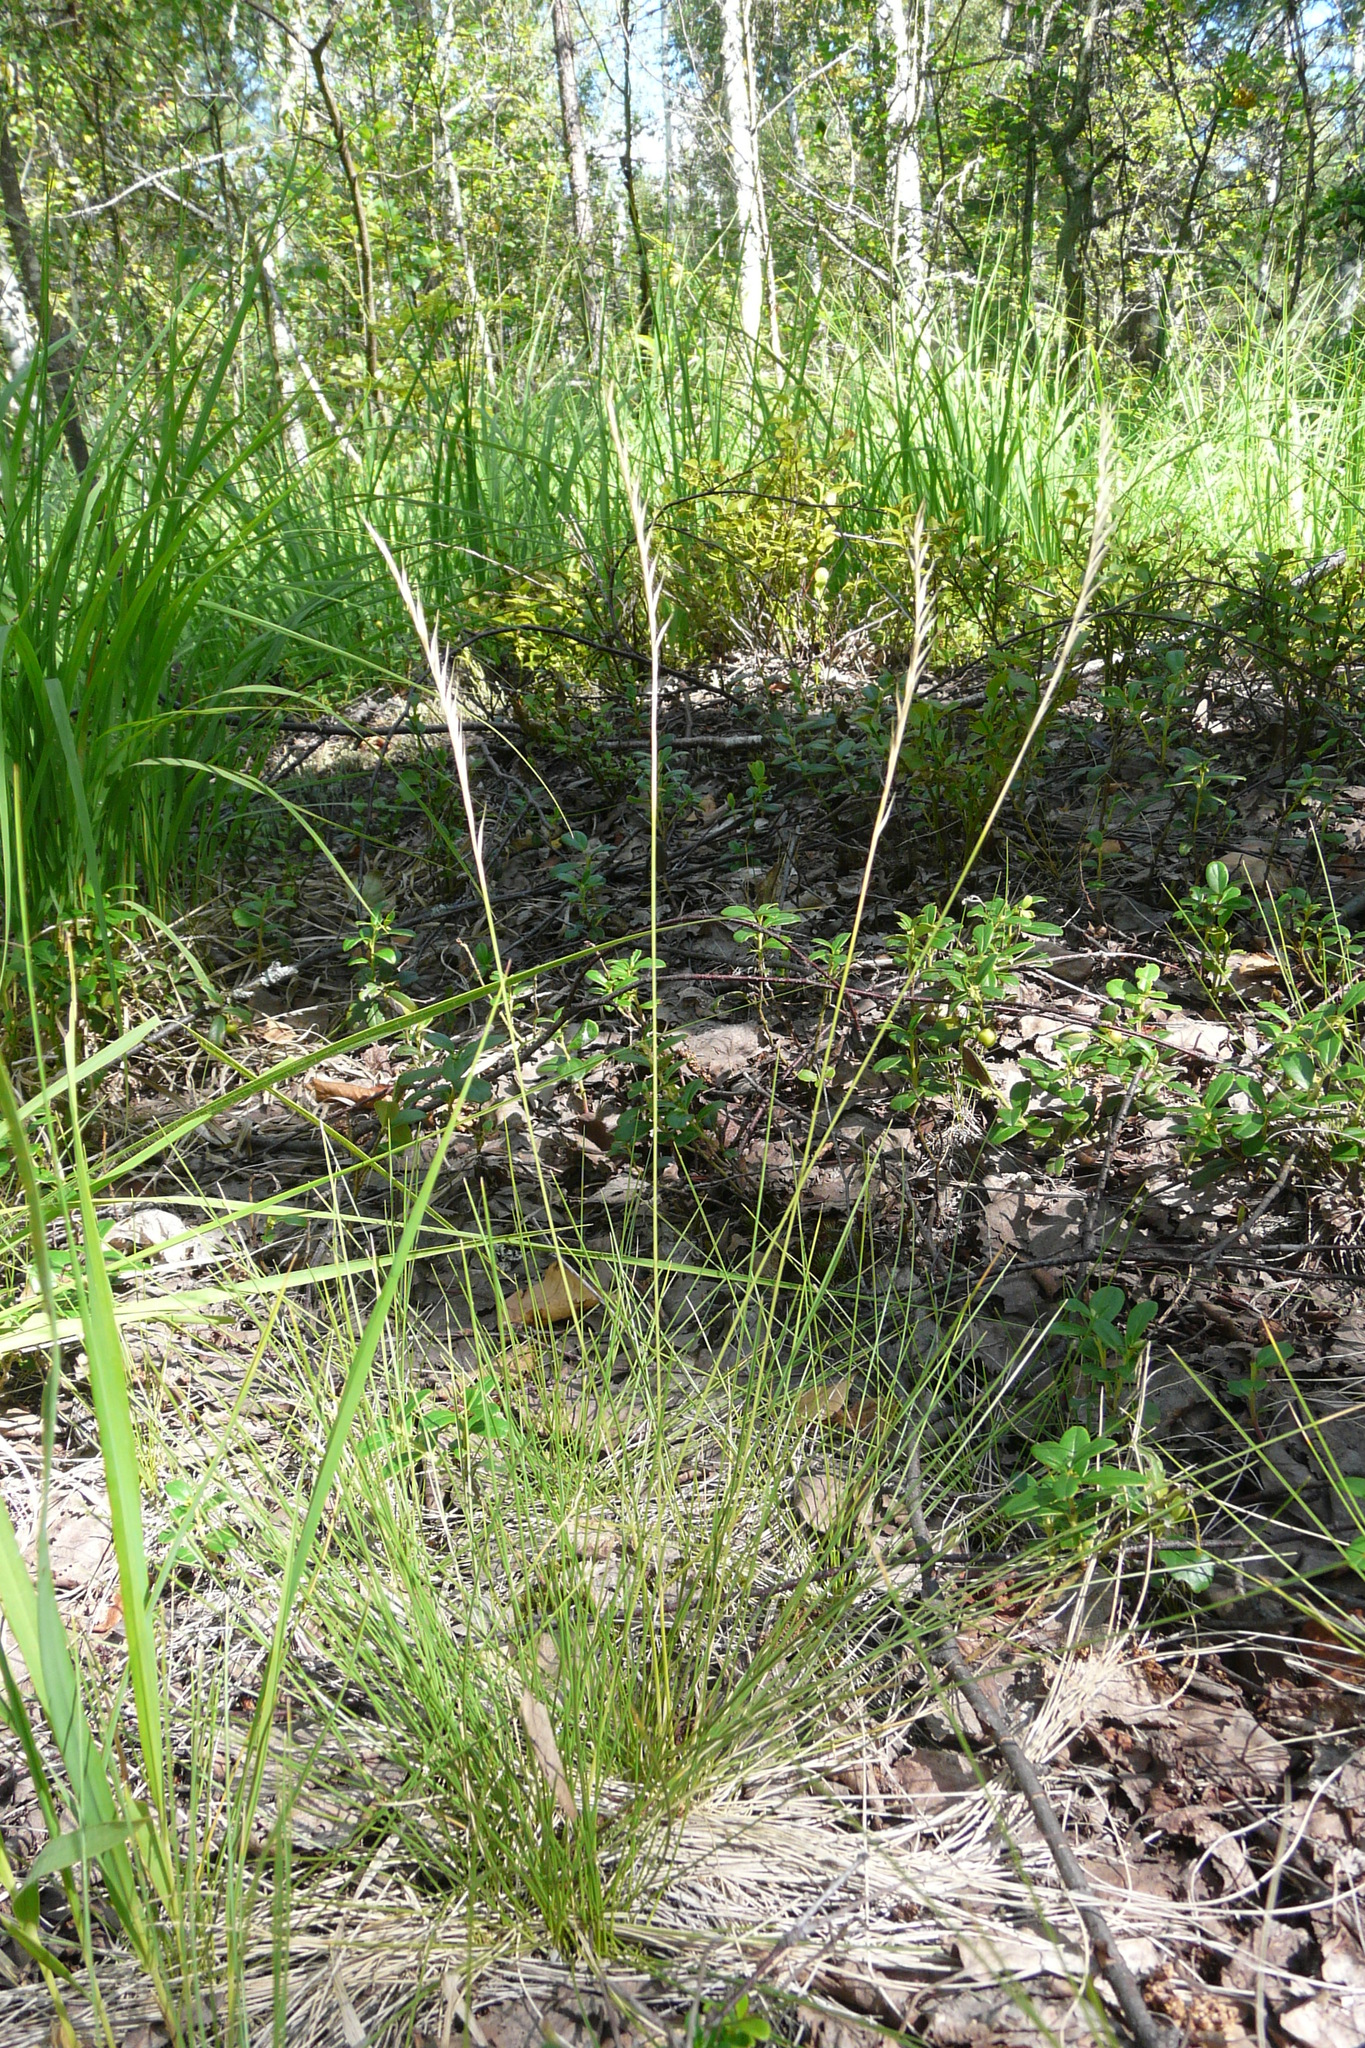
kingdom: Plantae
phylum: Tracheophyta
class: Liliopsida
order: Poales
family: Poaceae
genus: Nardus
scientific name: Nardus stricta
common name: Mat-grass
